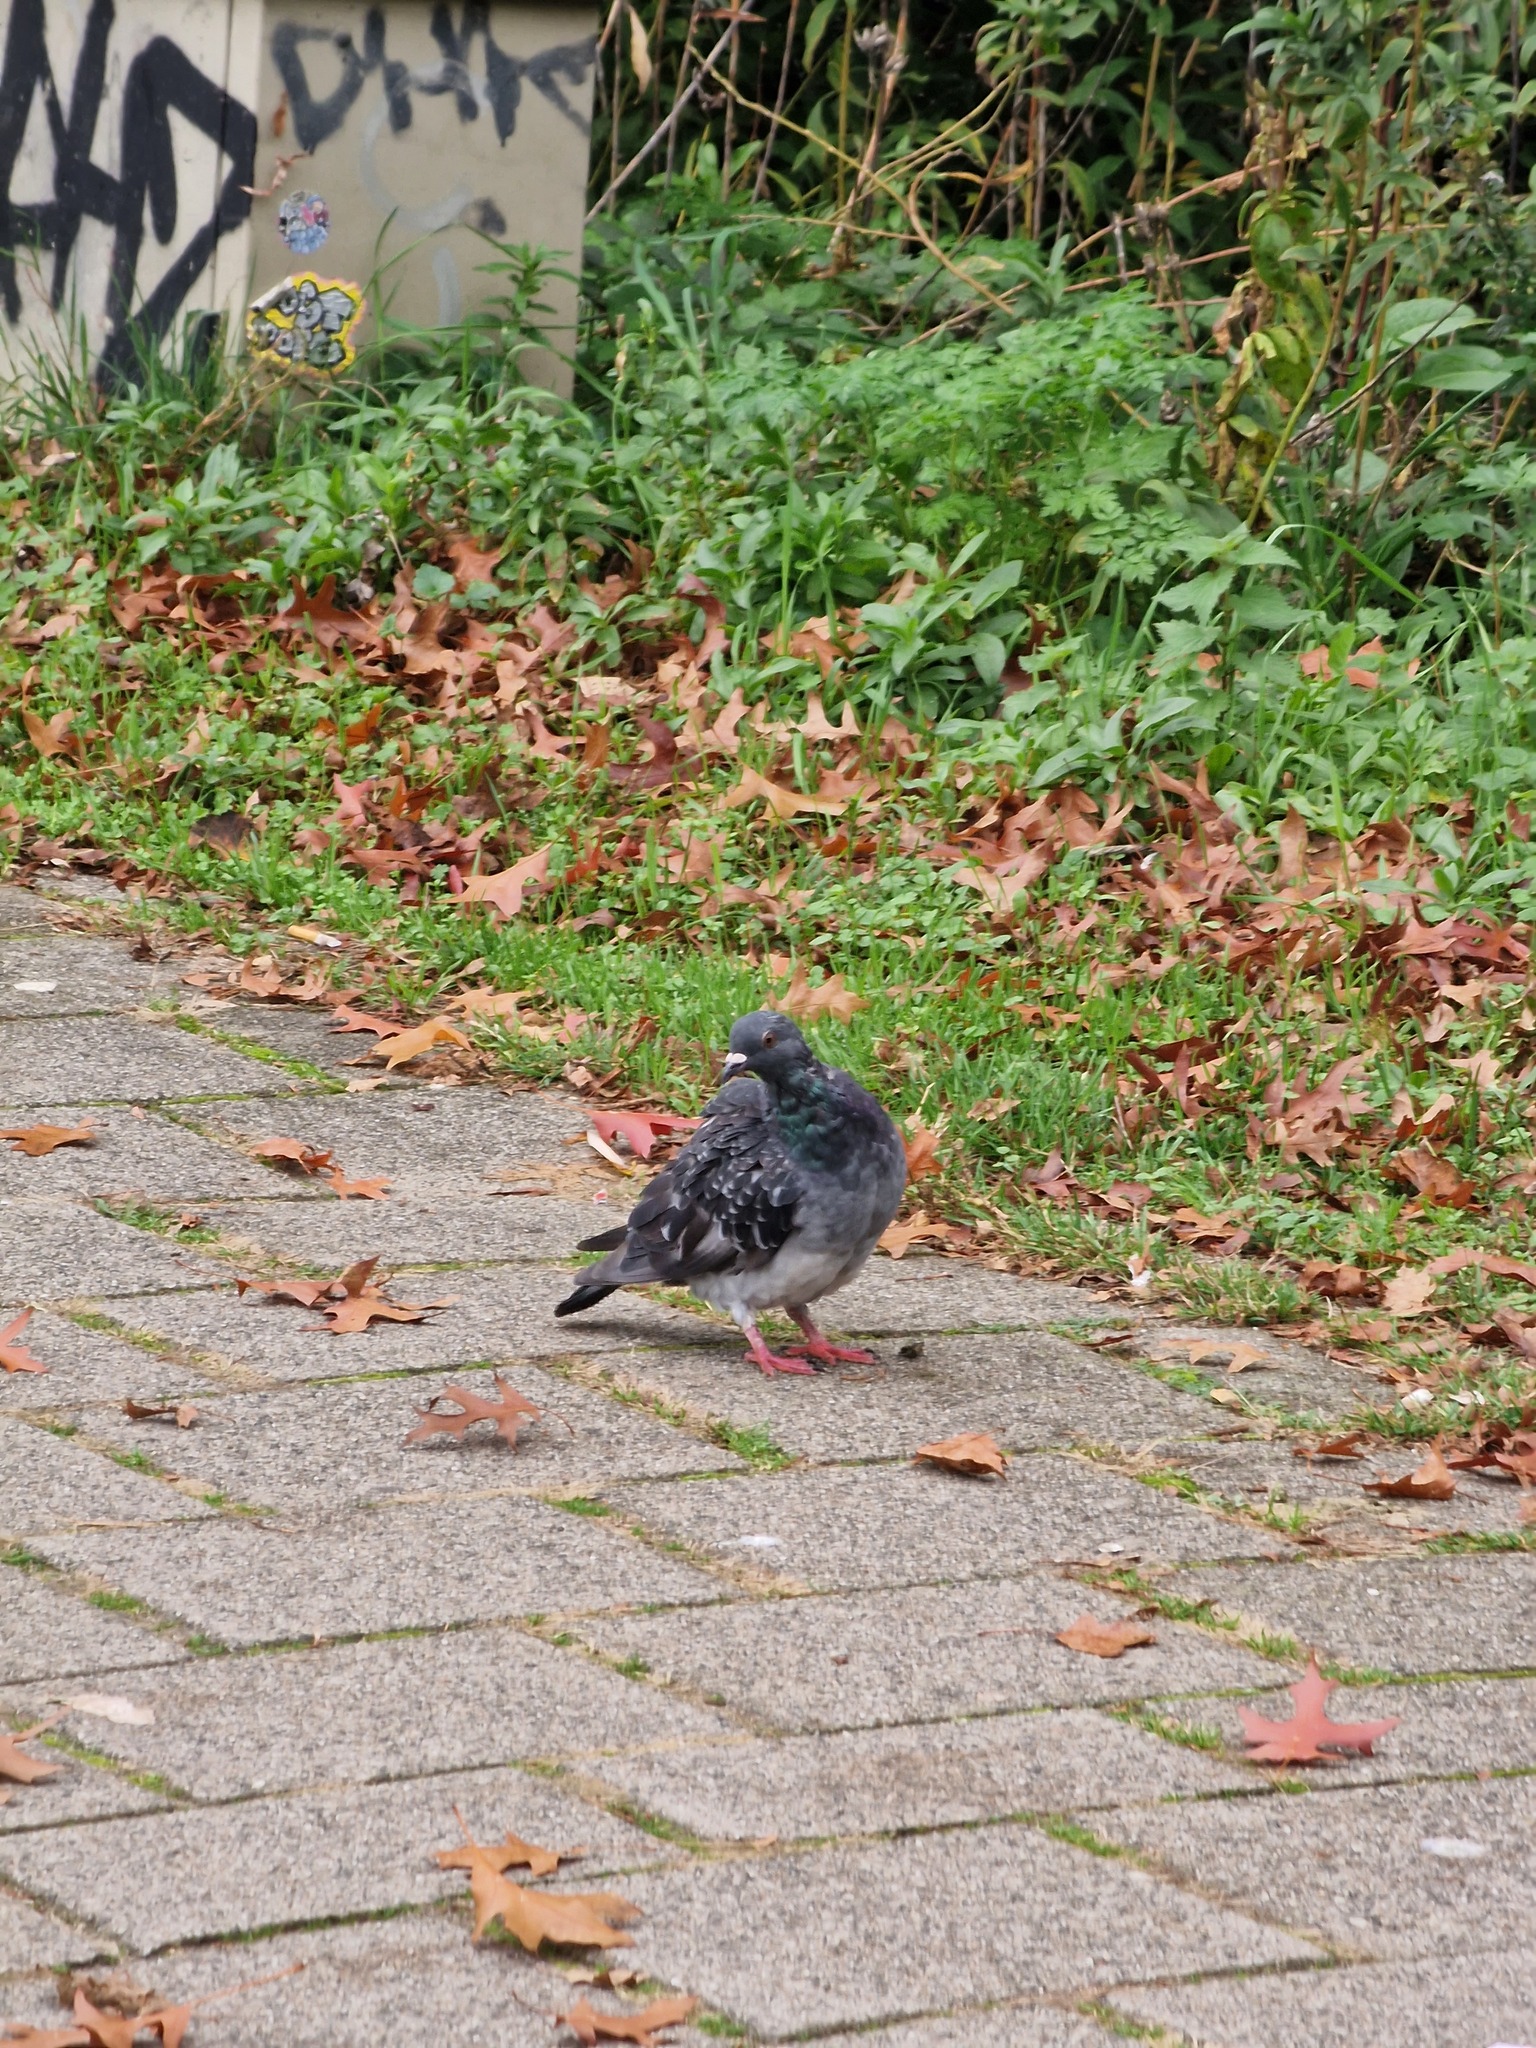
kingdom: Animalia
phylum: Chordata
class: Aves
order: Columbiformes
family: Columbidae
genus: Columba
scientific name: Columba livia
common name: Rock pigeon
